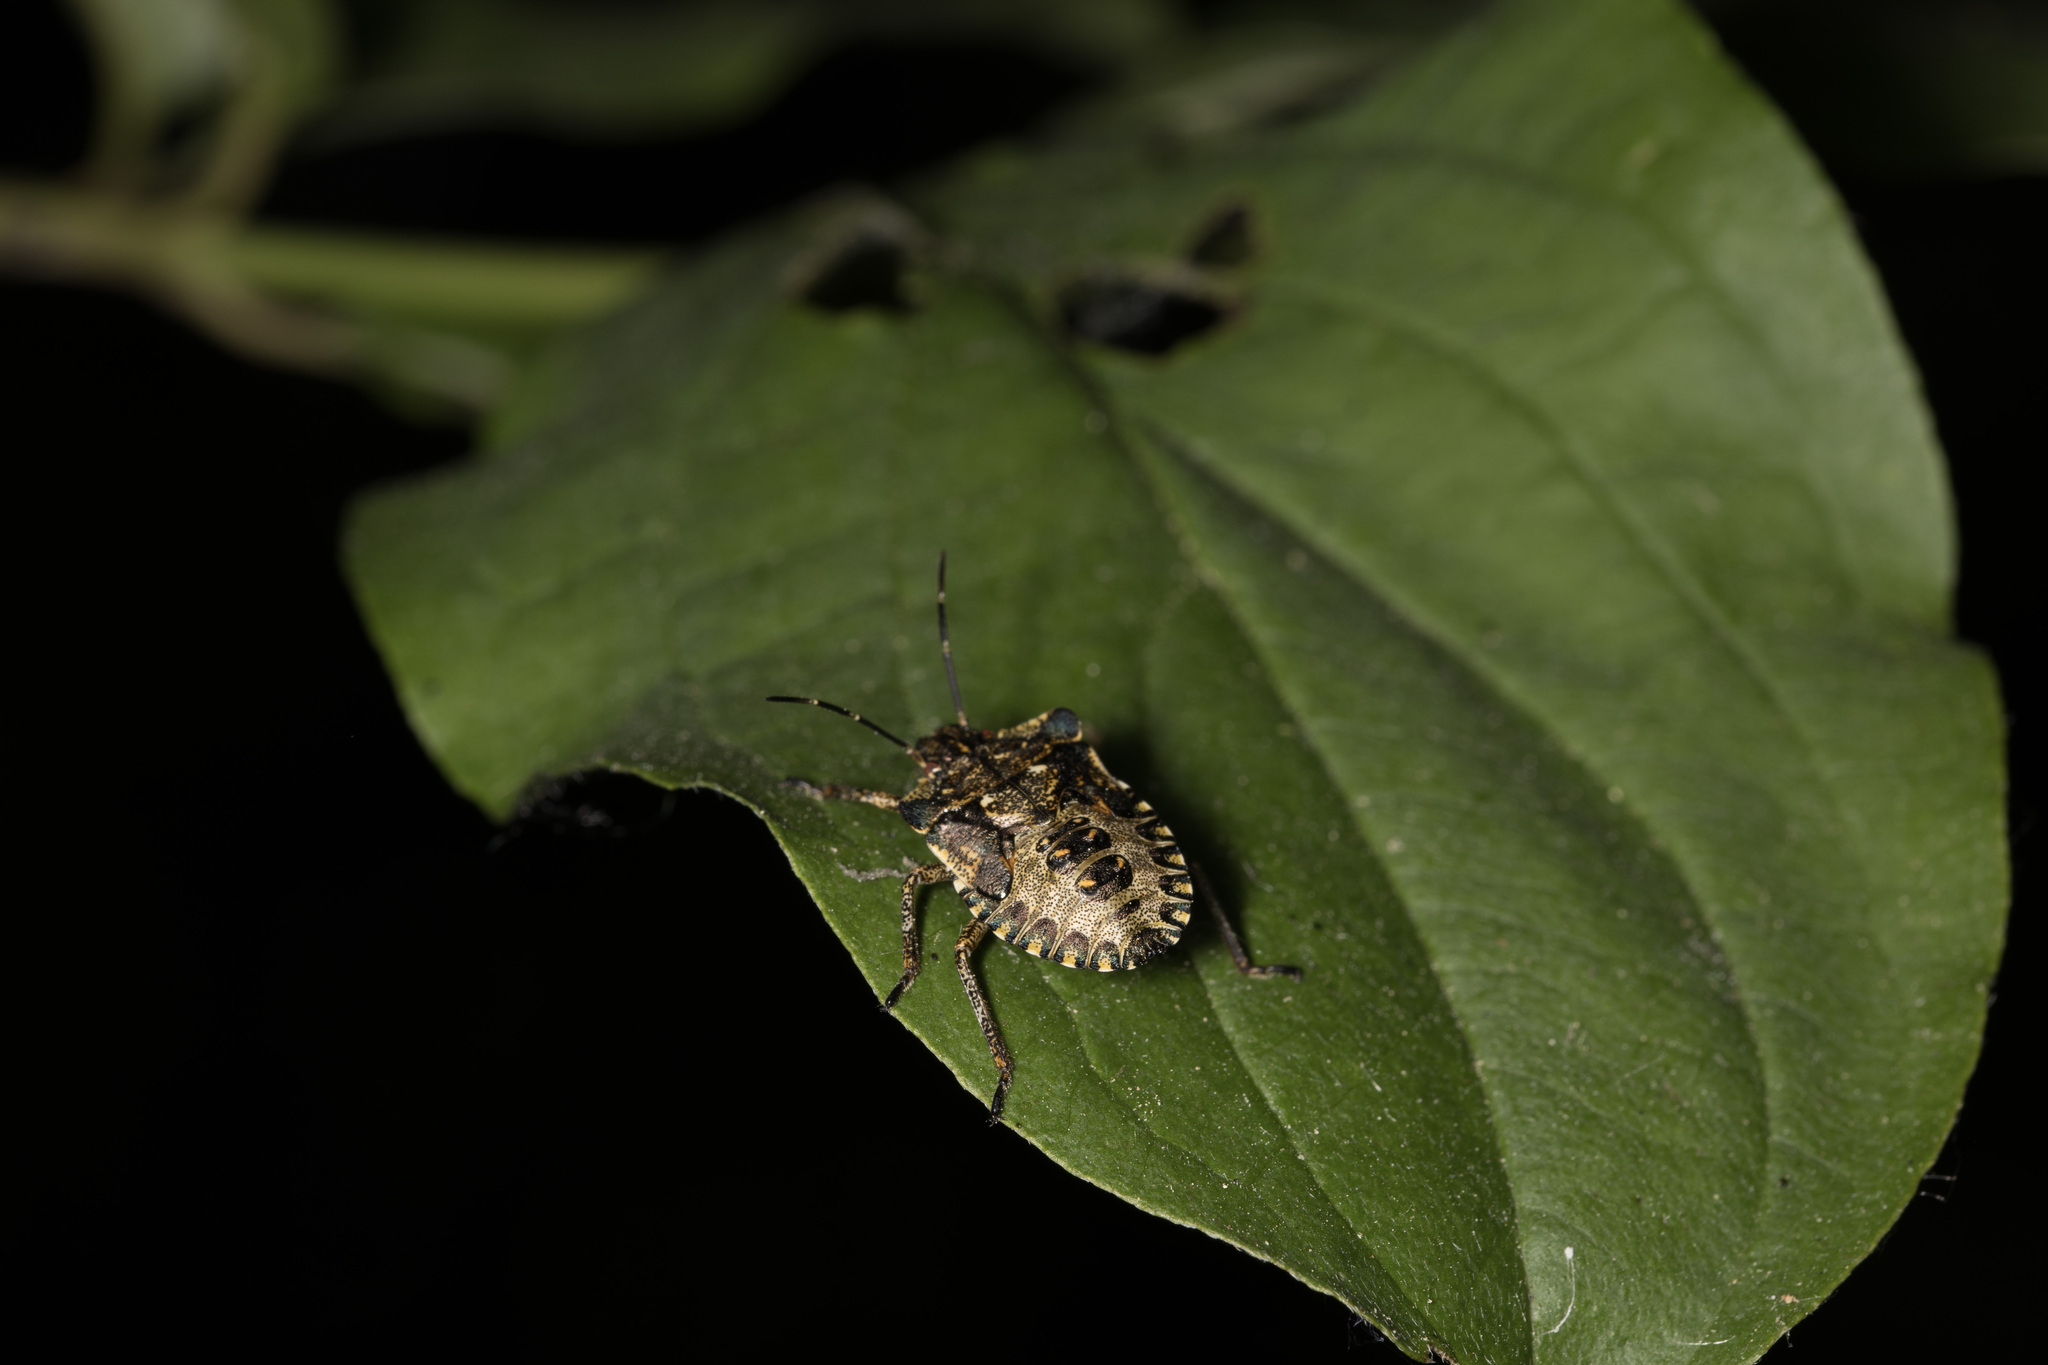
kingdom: Animalia
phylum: Arthropoda
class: Insecta
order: Hemiptera
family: Pentatomidae
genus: Pentatoma
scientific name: Pentatoma rufipes
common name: Forest bug
